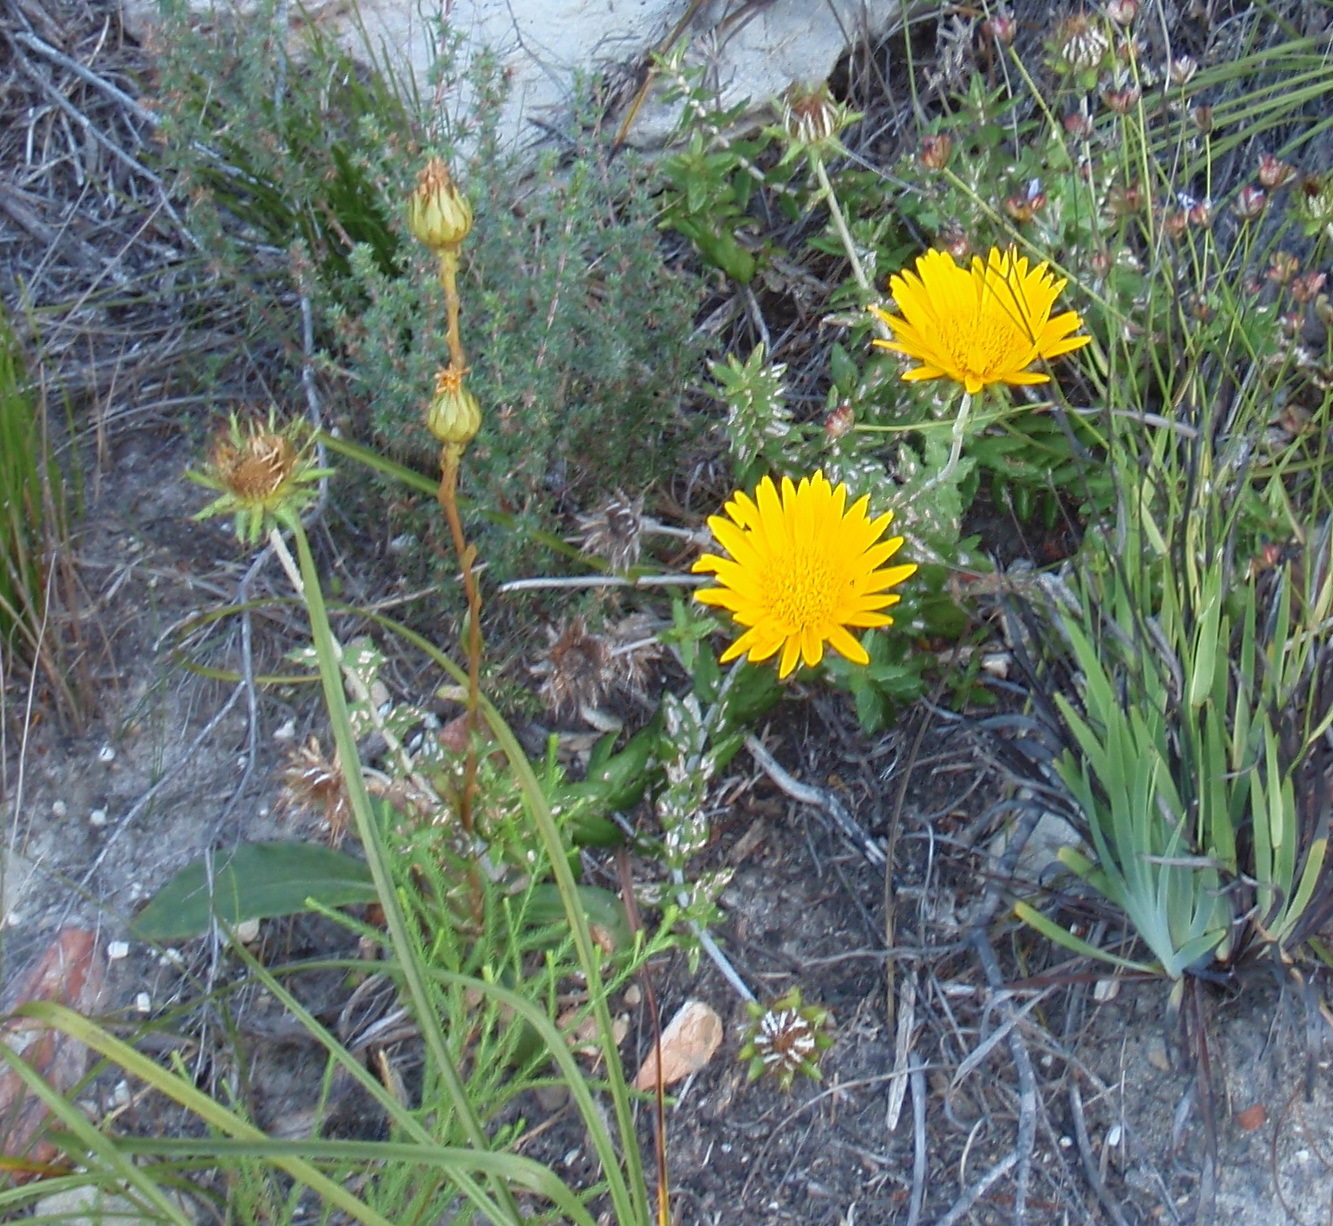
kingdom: Plantae
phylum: Tracheophyta
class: Magnoliopsida
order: Asterales
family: Asteraceae
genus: Berkheya
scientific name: Berkheya barbata
